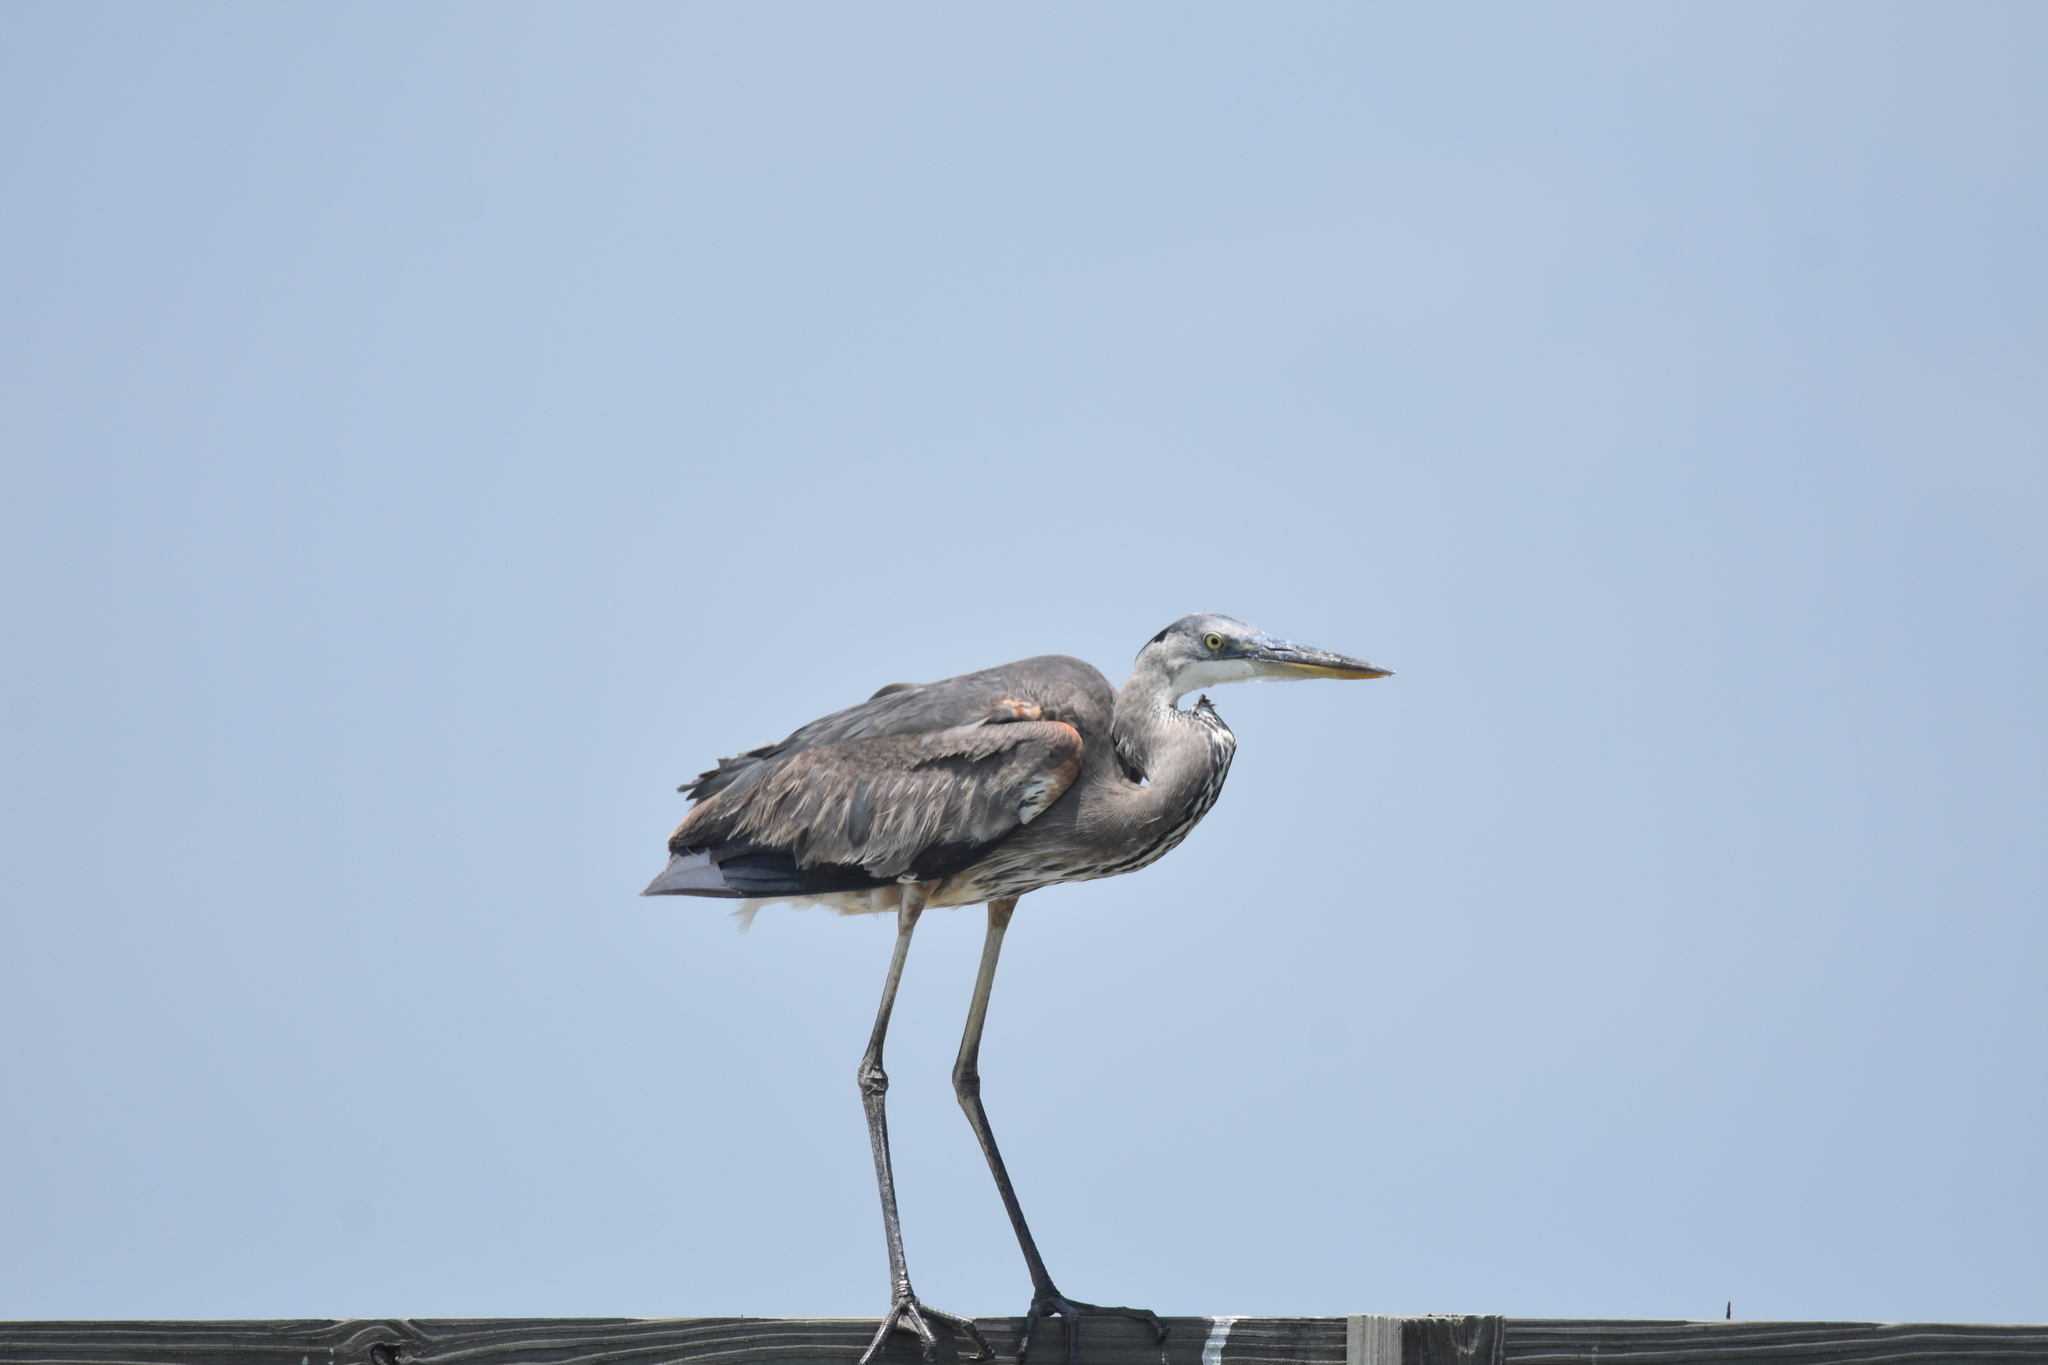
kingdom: Animalia
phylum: Chordata
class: Aves
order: Pelecaniformes
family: Ardeidae
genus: Ardea
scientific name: Ardea herodias
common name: Great blue heron
